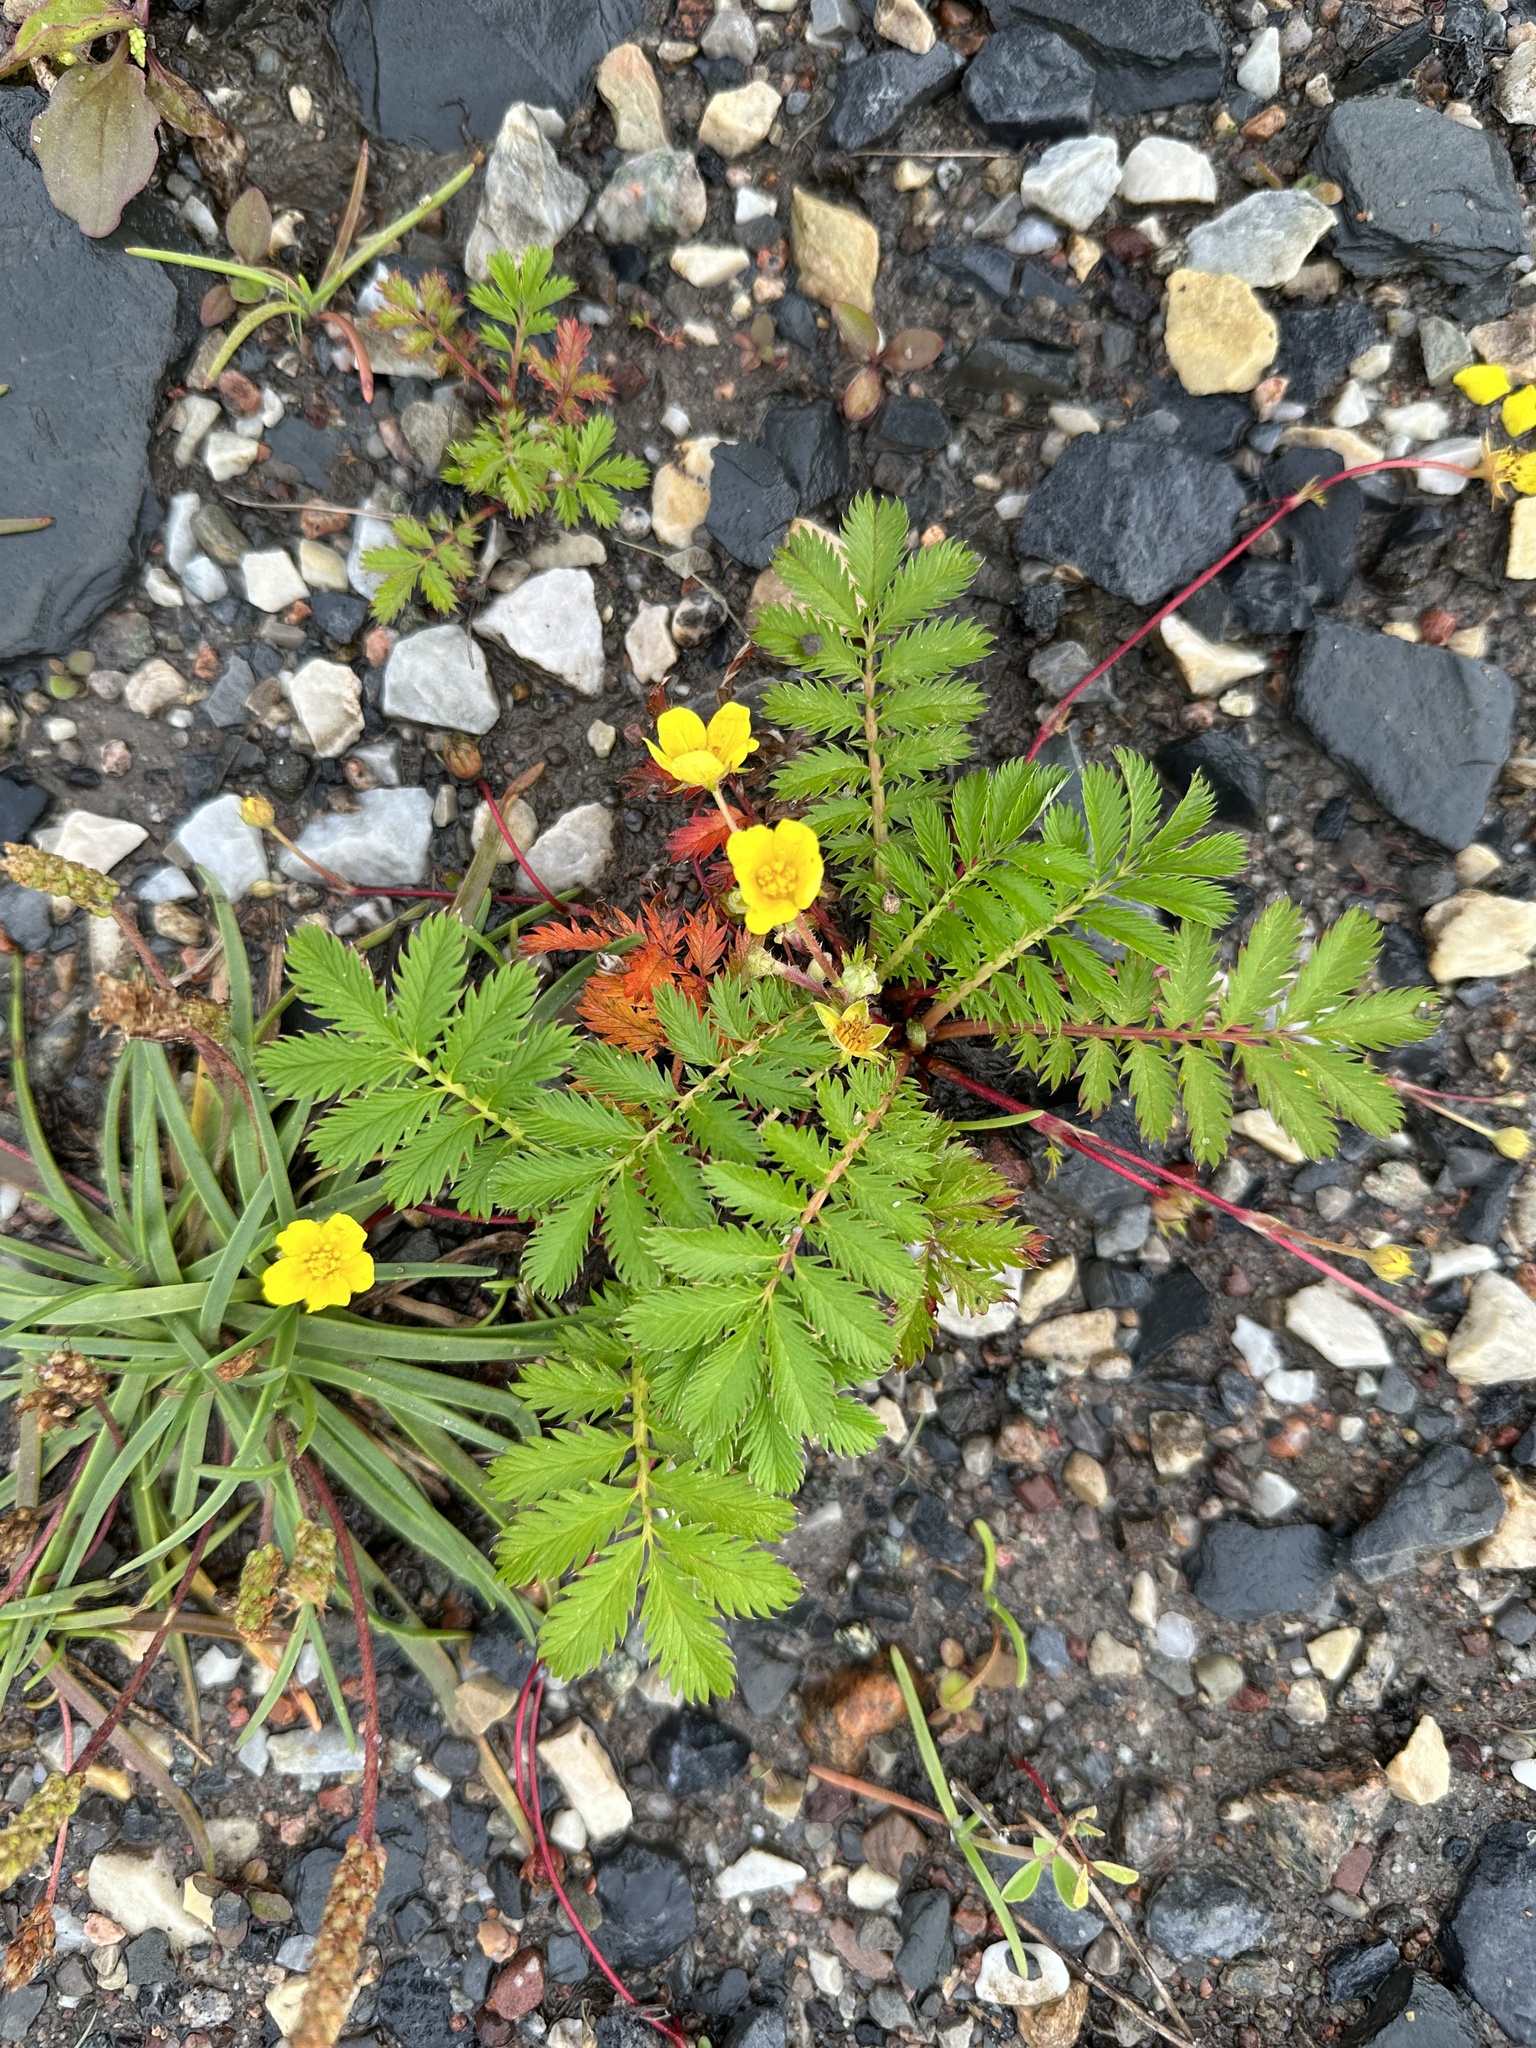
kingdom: Plantae
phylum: Tracheophyta
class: Magnoliopsida
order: Rosales
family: Rosaceae
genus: Argentina
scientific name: Argentina anserina
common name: Common silverweed
